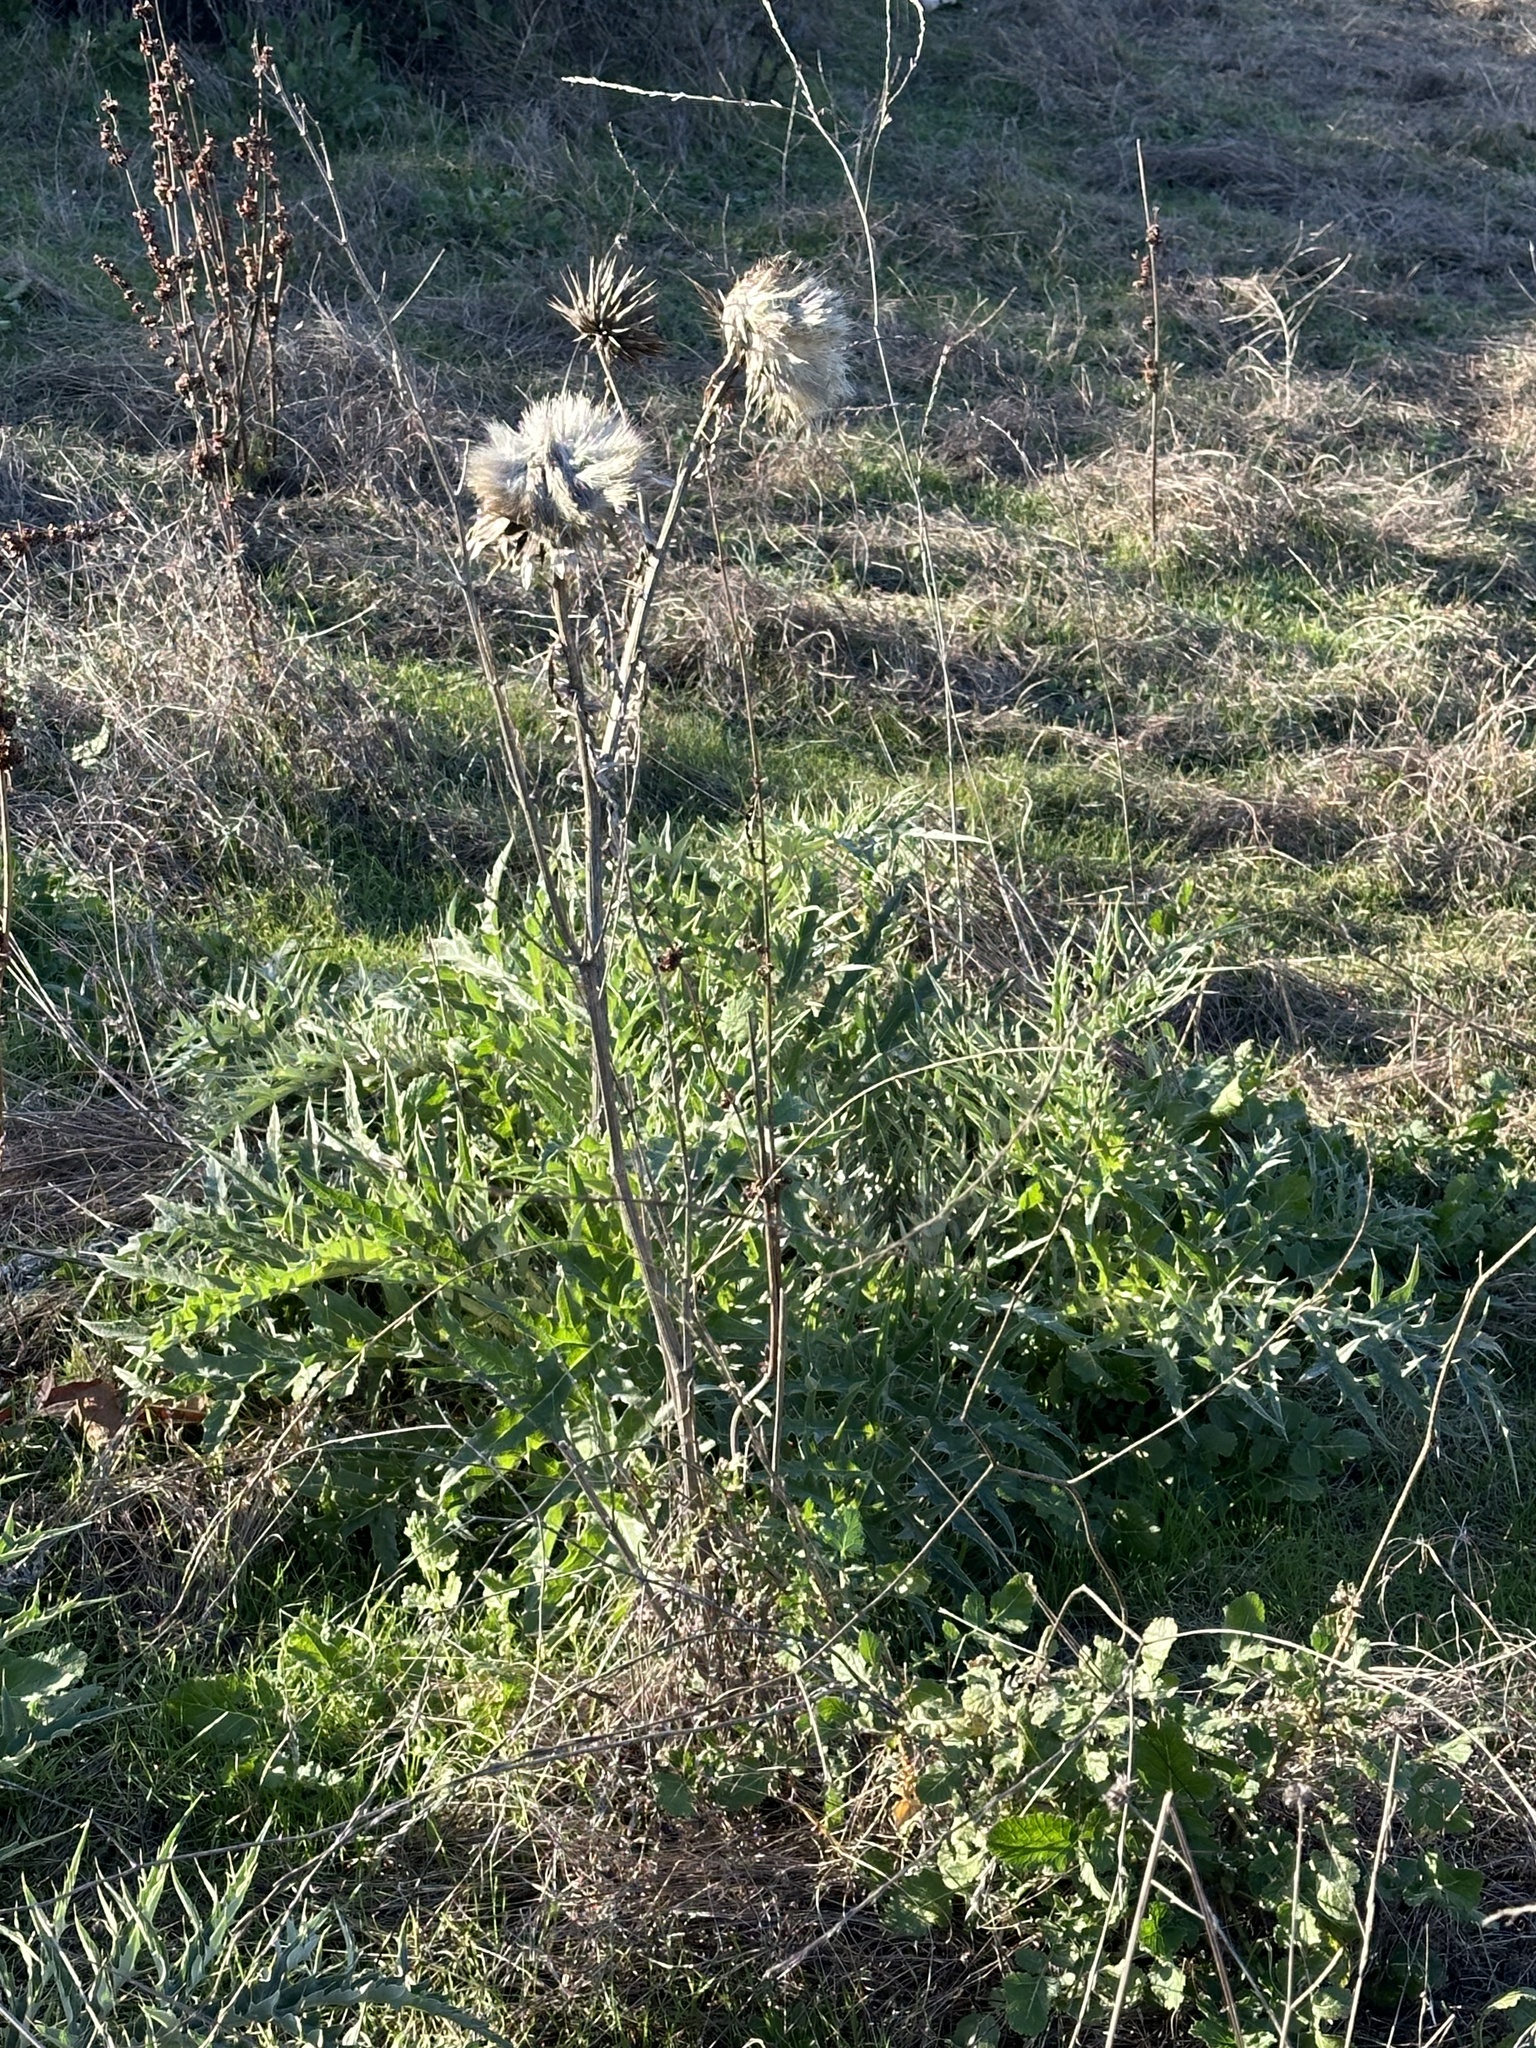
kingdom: Plantae
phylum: Tracheophyta
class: Magnoliopsida
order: Asterales
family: Asteraceae
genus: Cynara
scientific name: Cynara cardunculus
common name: Globe artichoke
